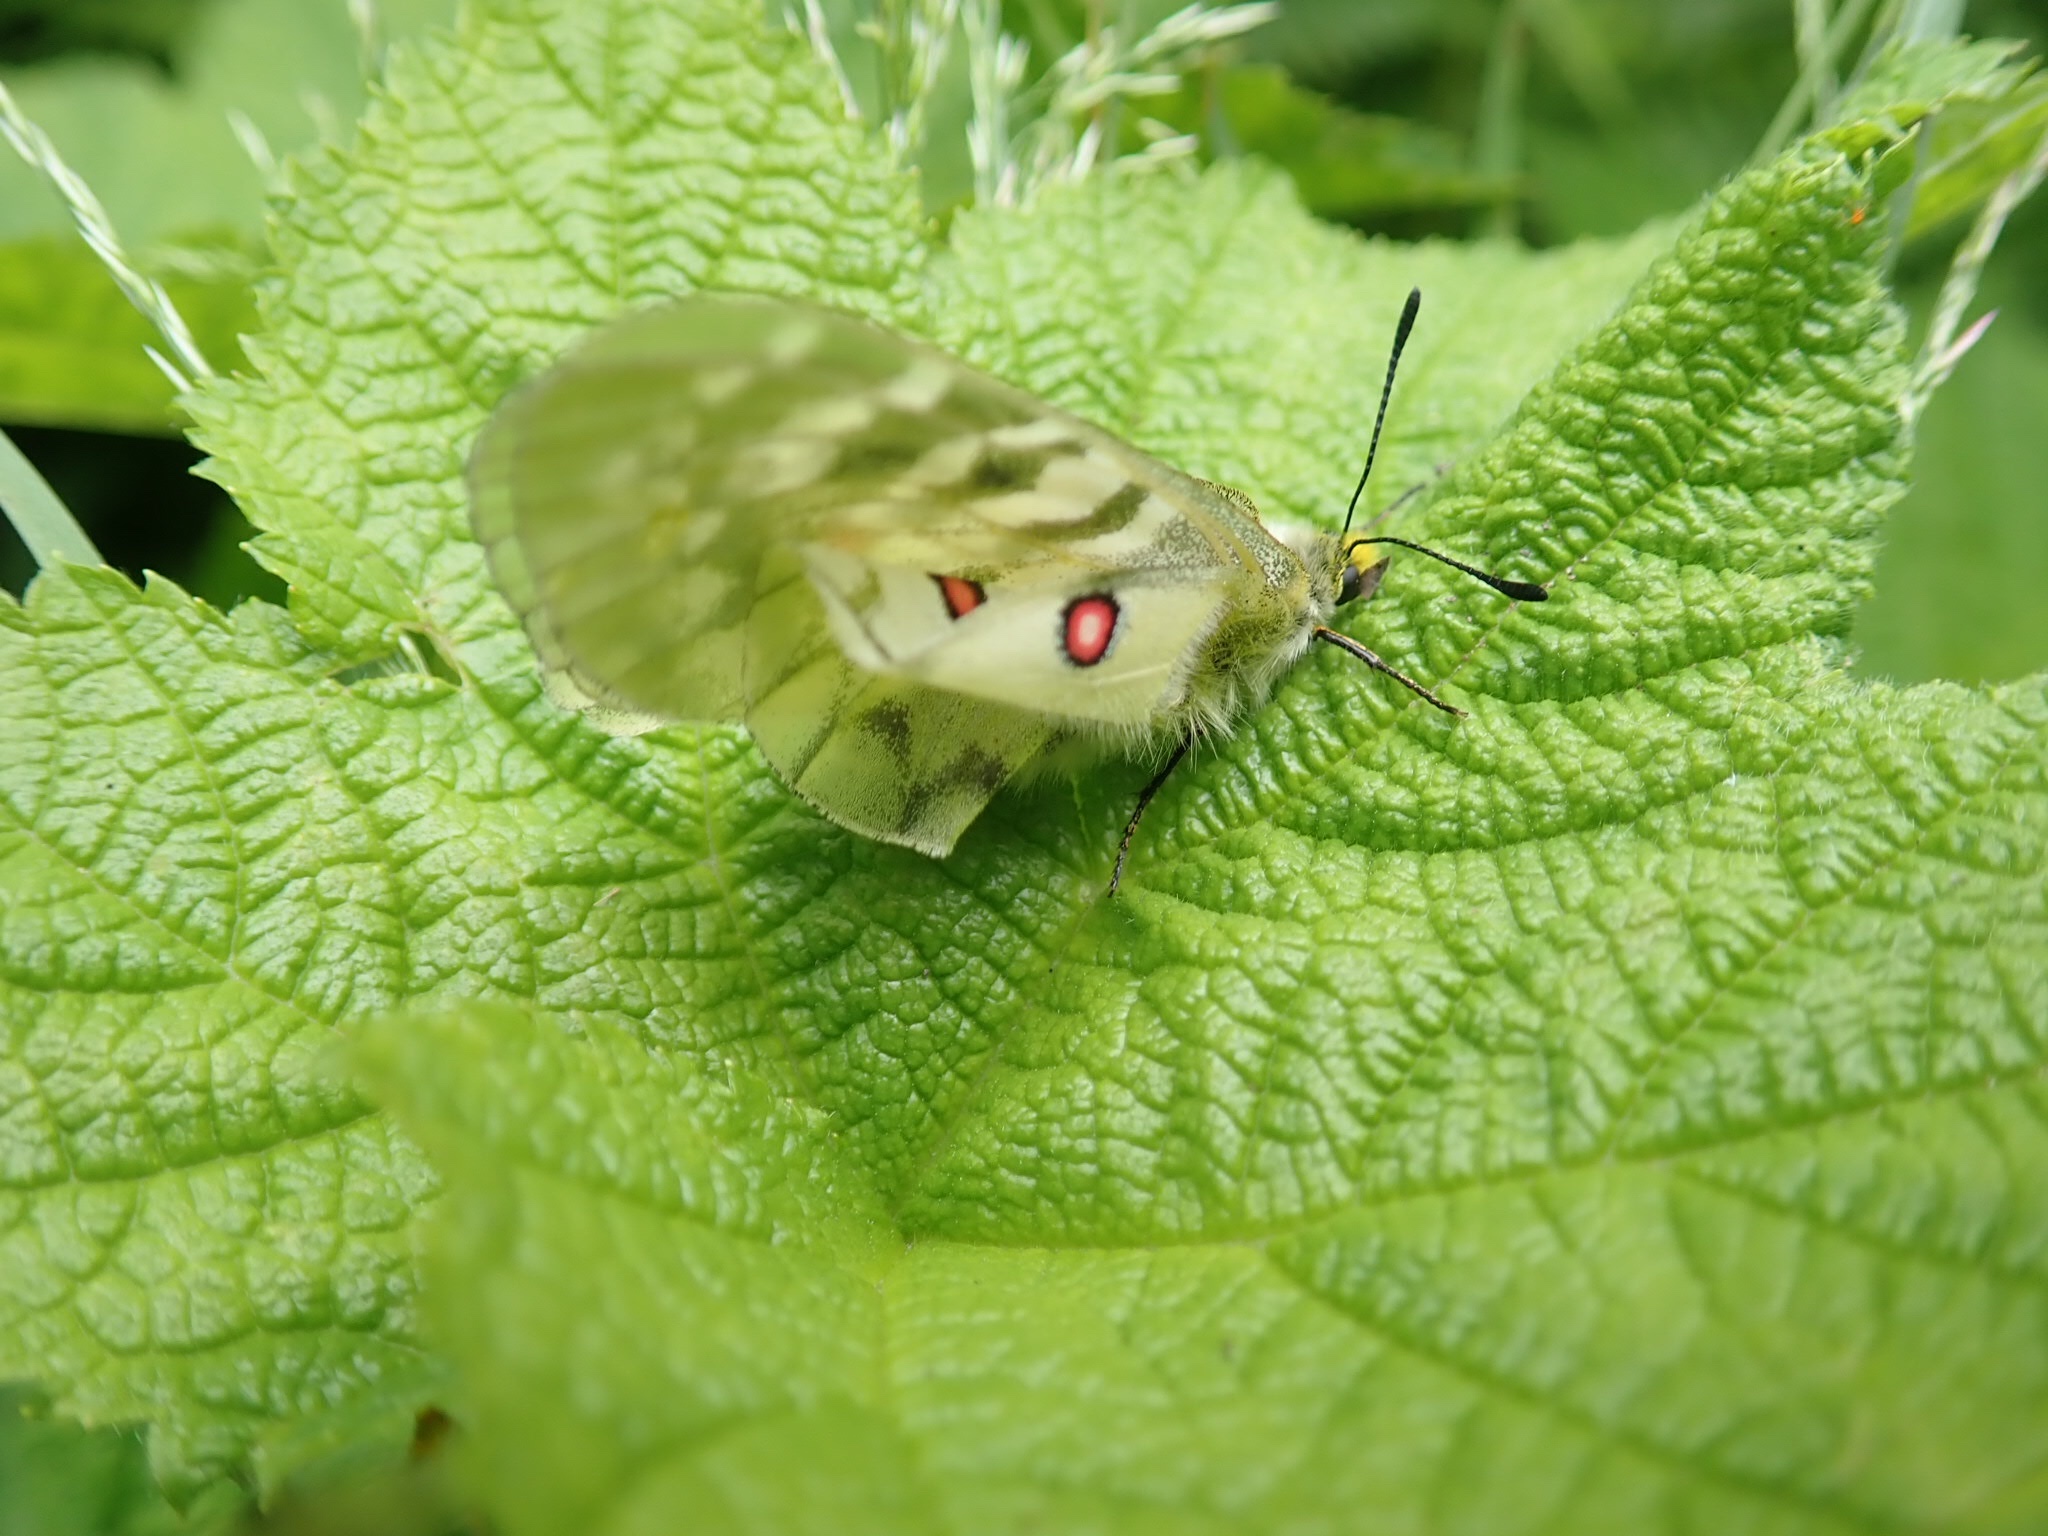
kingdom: Animalia
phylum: Arthropoda
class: Insecta
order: Lepidoptera
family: Papilionidae
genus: Parnassius
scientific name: Parnassius clodius
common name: American apollo
